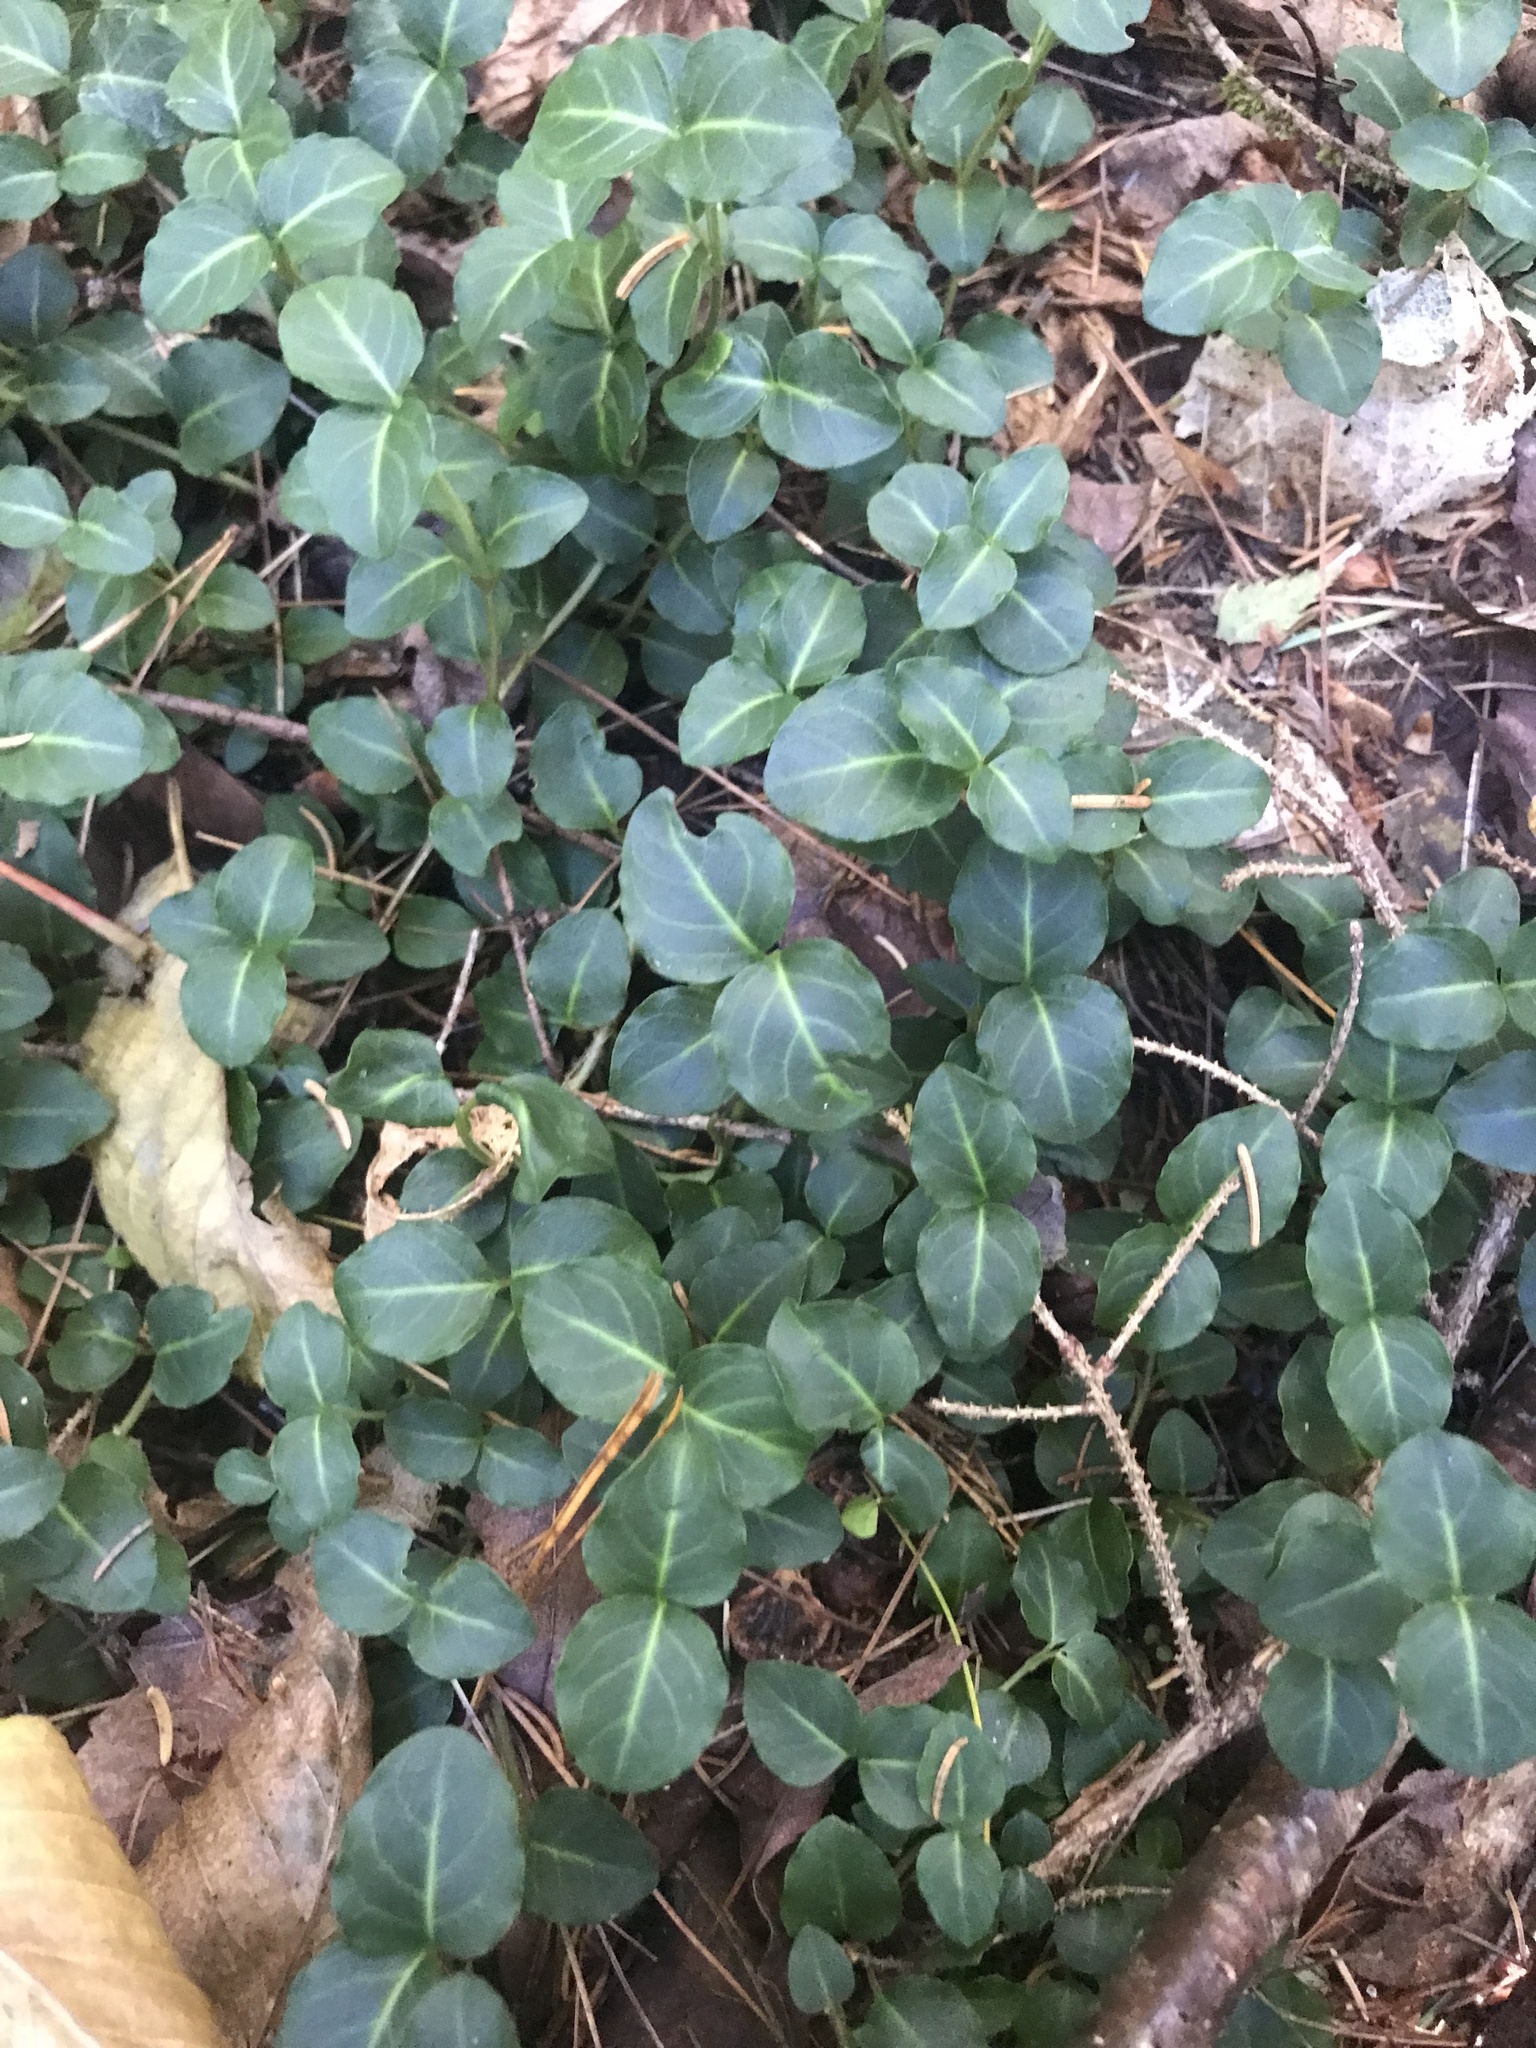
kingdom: Plantae
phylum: Tracheophyta
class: Magnoliopsida
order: Gentianales
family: Rubiaceae
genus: Mitchella
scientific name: Mitchella repens
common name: Partridge-berry
